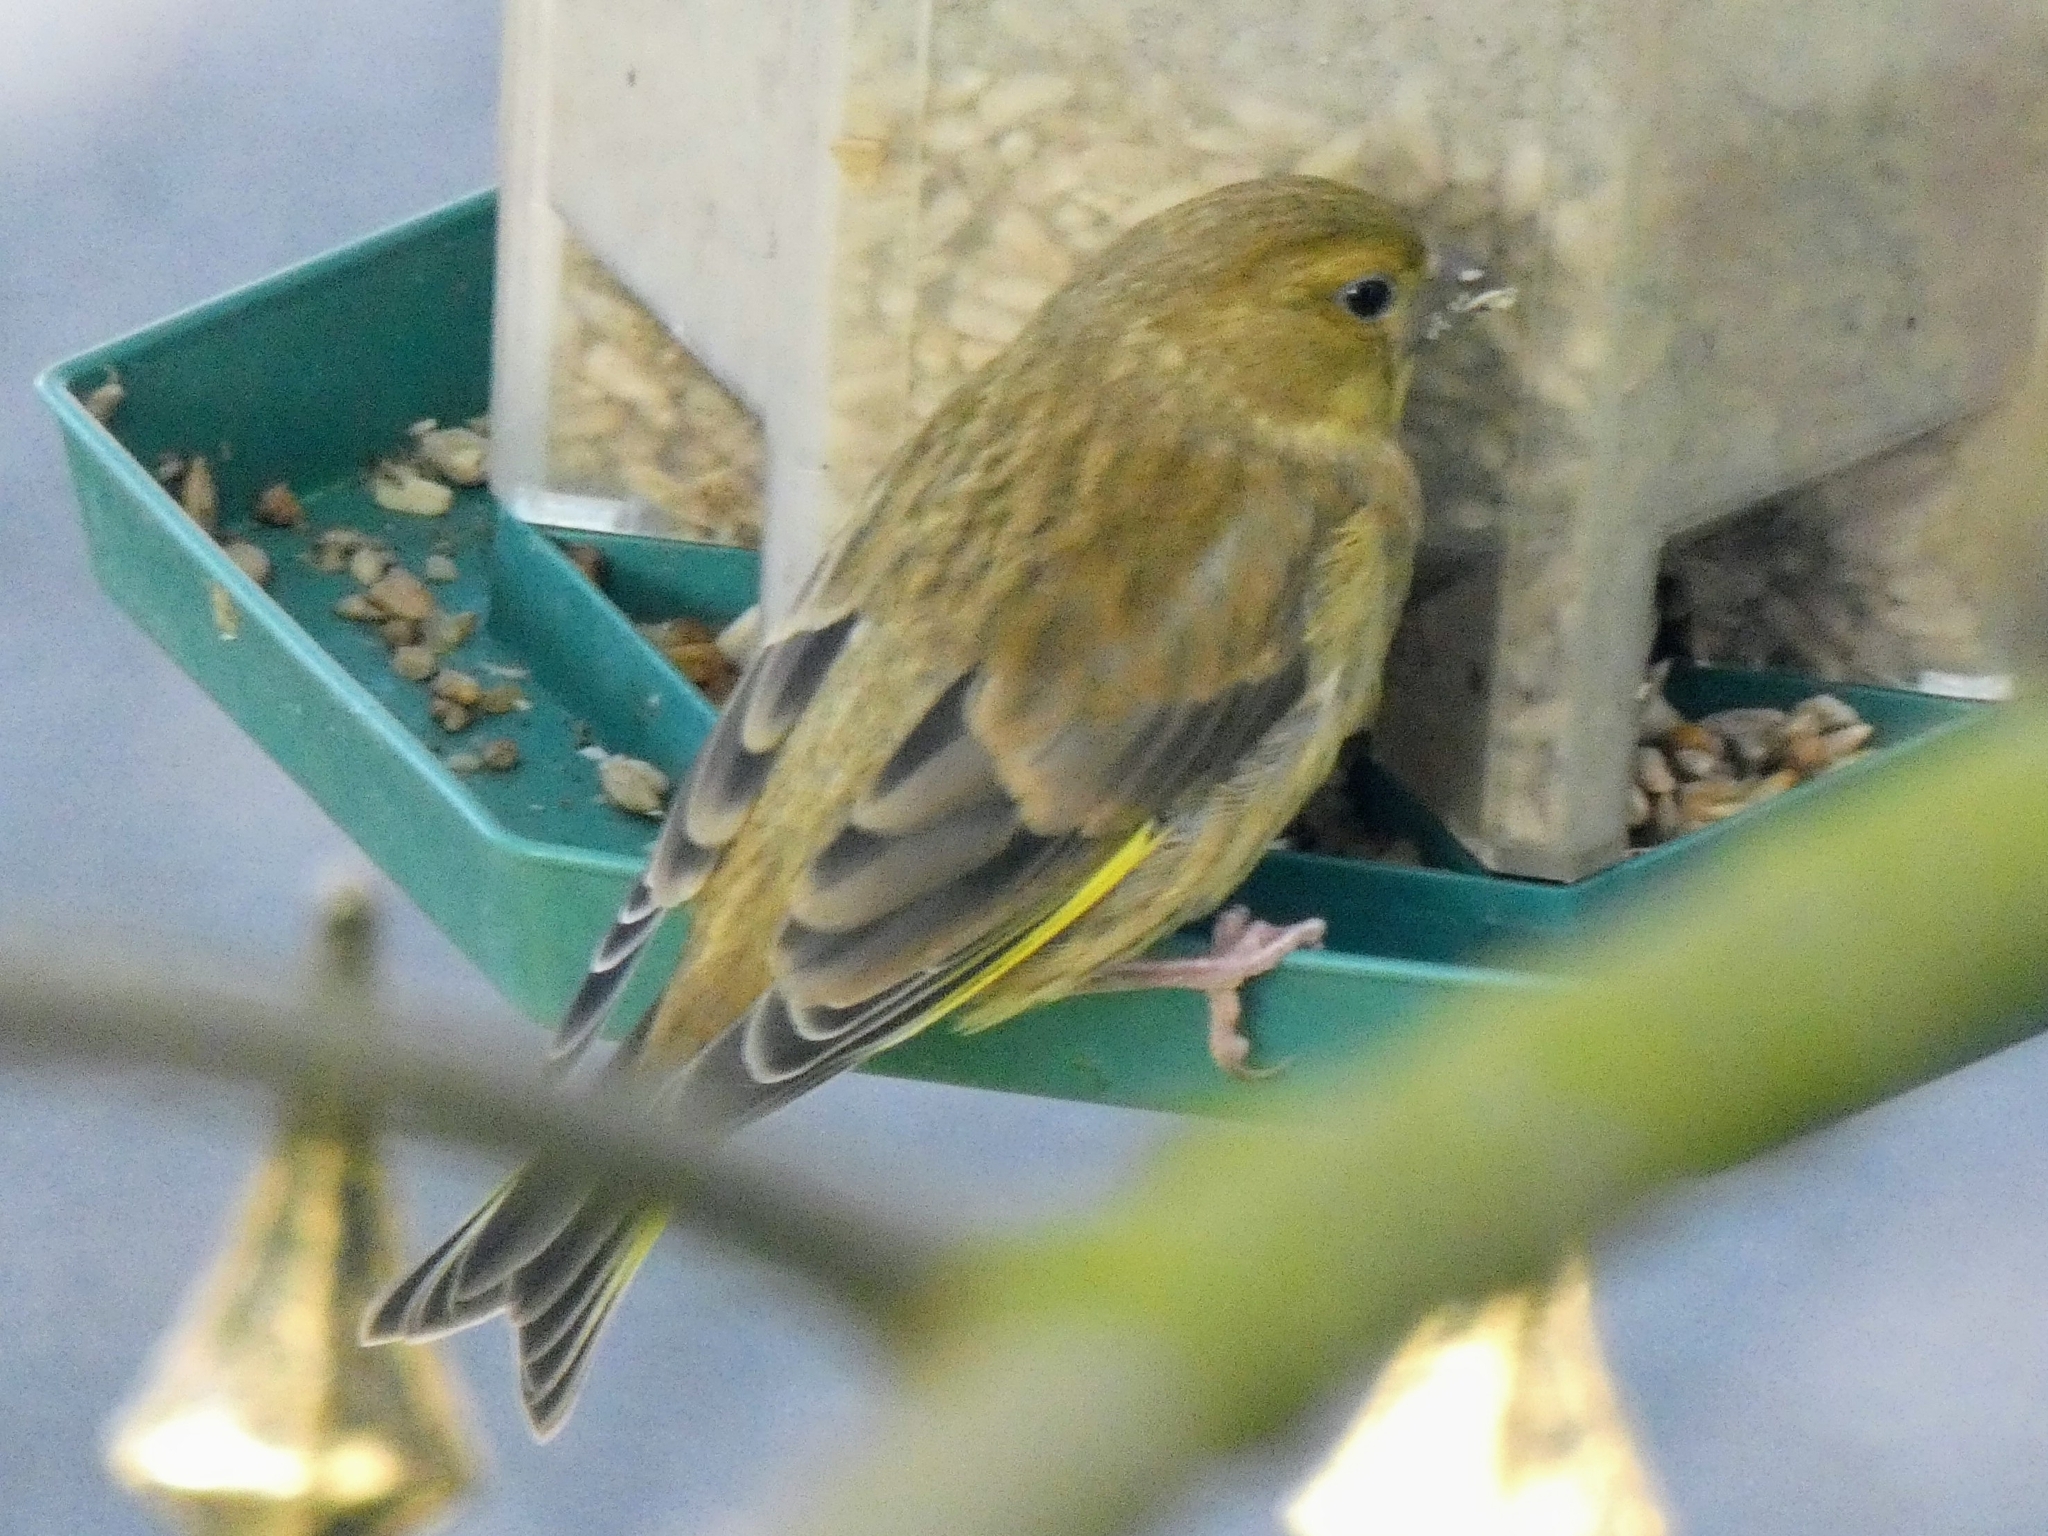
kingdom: Plantae
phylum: Tracheophyta
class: Liliopsida
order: Poales
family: Poaceae
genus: Chloris
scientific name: Chloris chloris
